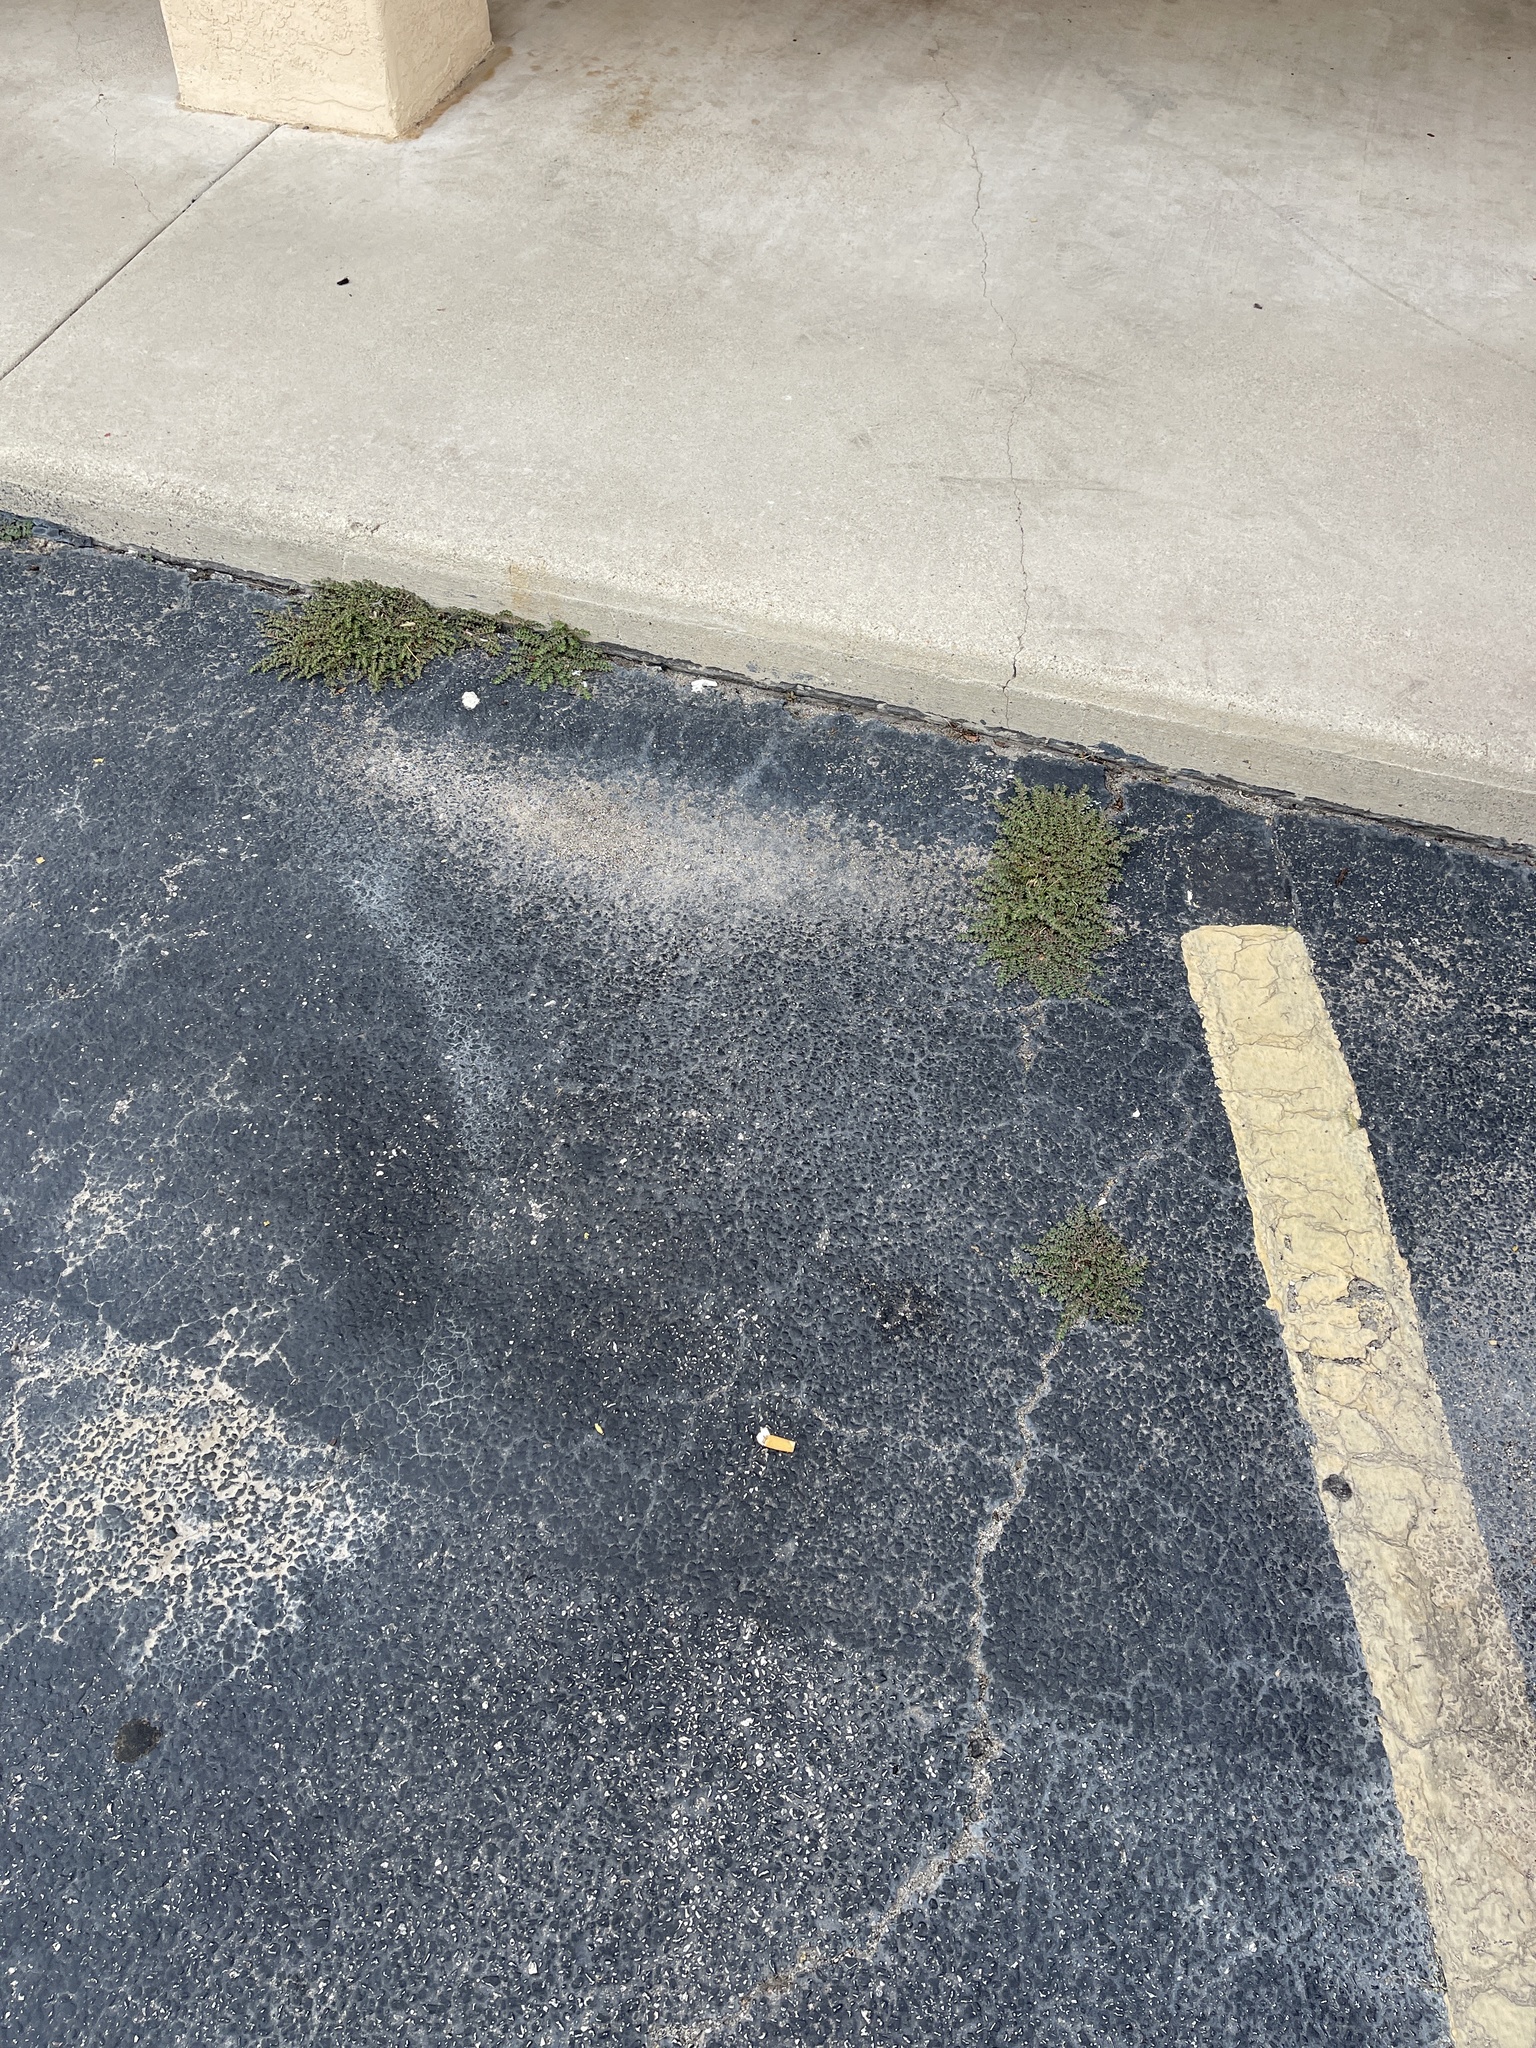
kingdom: Plantae
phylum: Tracheophyta
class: Magnoliopsida
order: Malpighiales
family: Euphorbiaceae
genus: Euphorbia
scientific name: Euphorbia prostrata
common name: Prostrate sandmat
